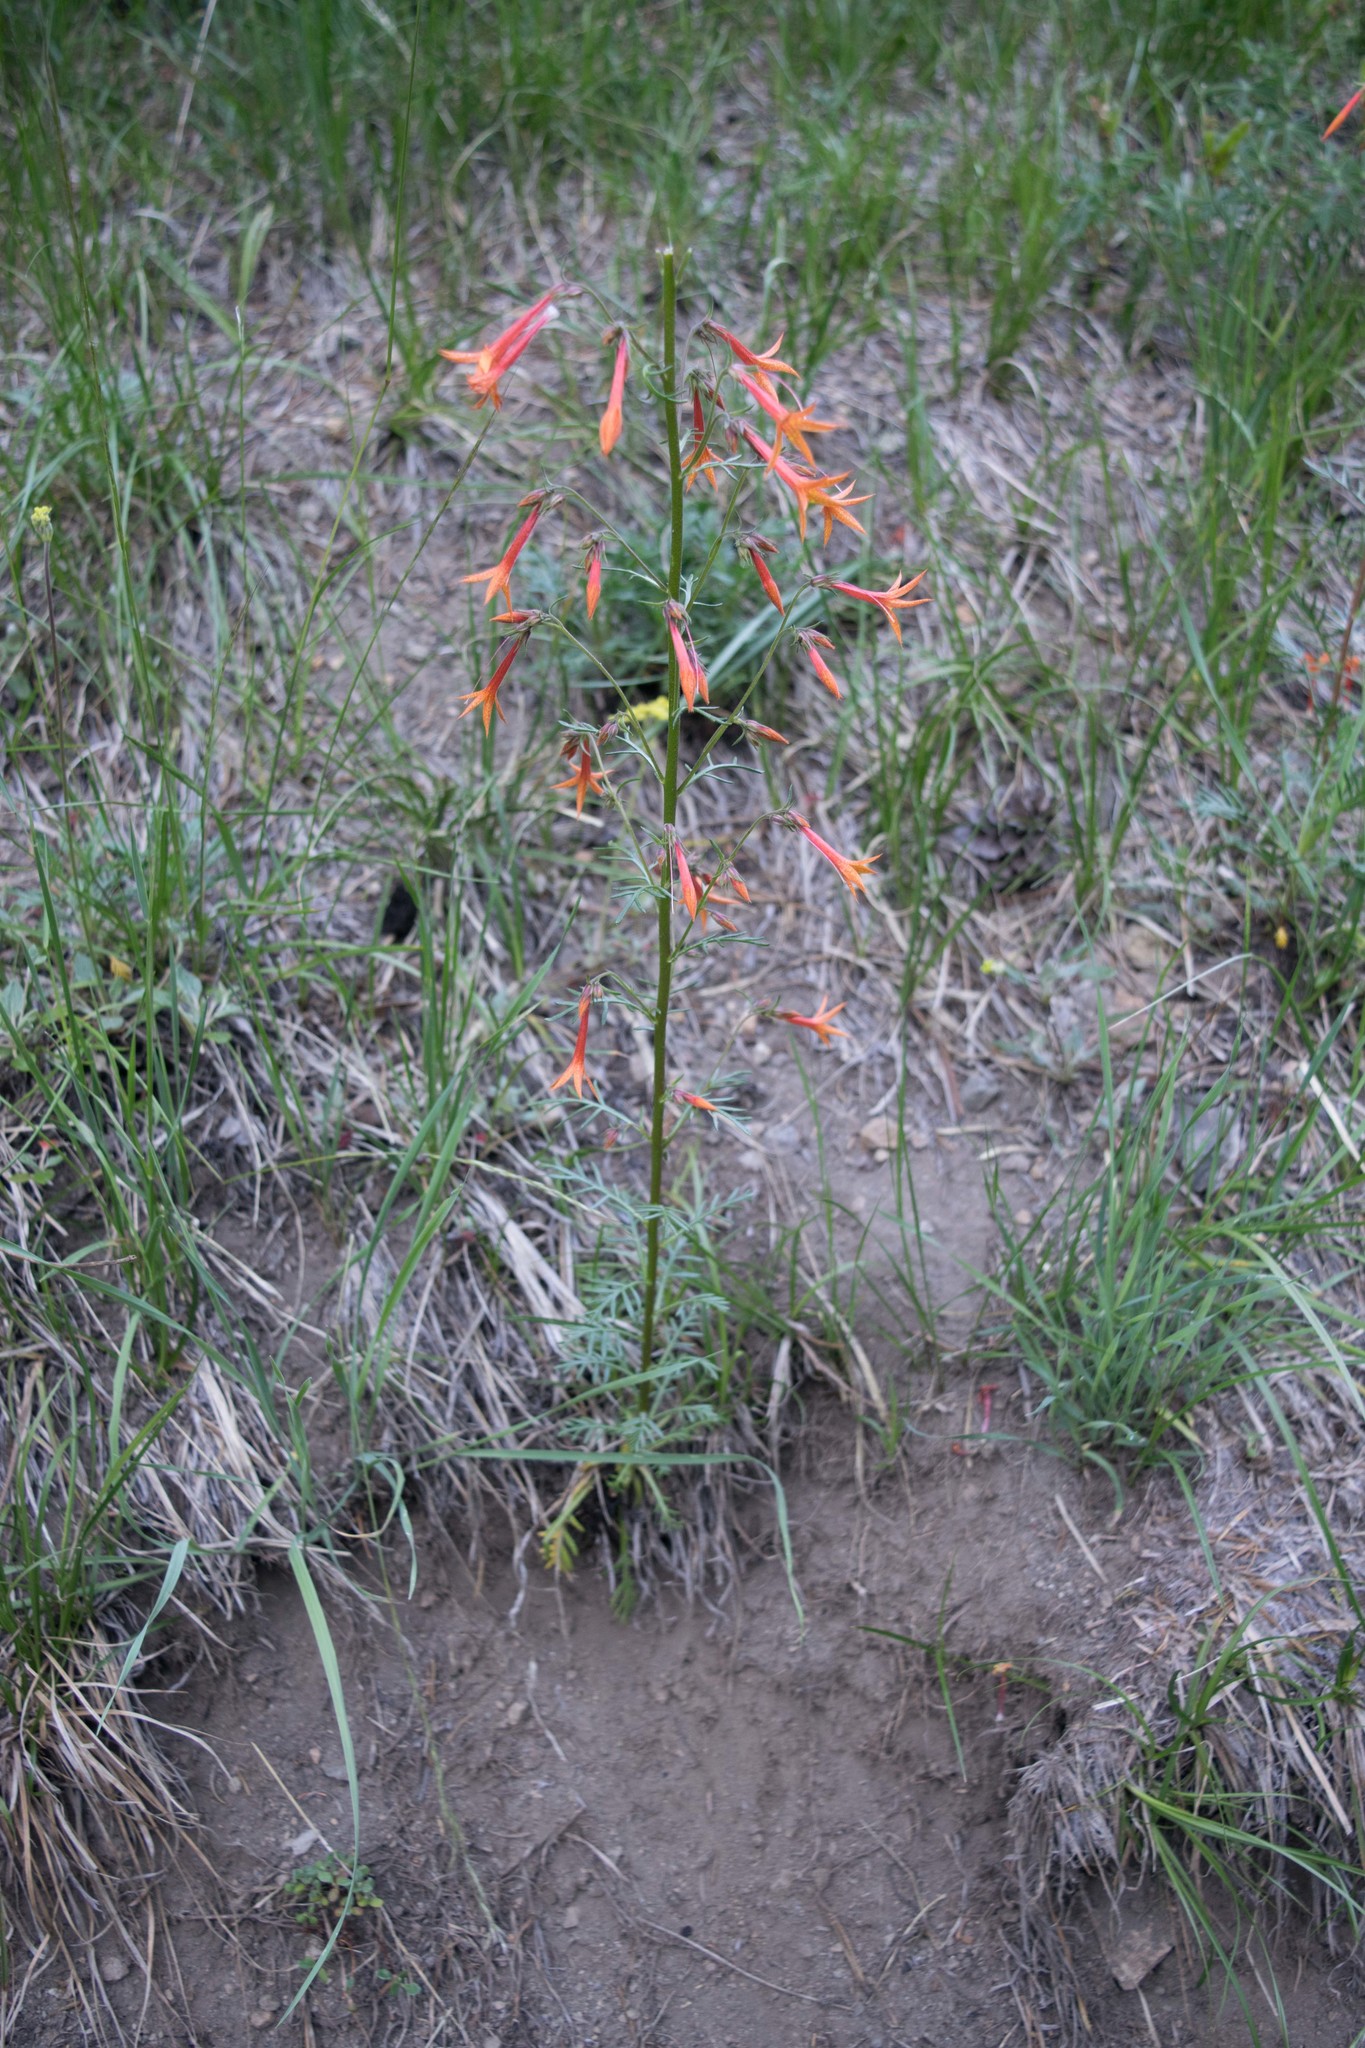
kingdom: Plantae
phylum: Tracheophyta
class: Magnoliopsida
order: Ericales
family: Polemoniaceae
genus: Ipomopsis
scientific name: Ipomopsis aggregata
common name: Scarlet gilia
